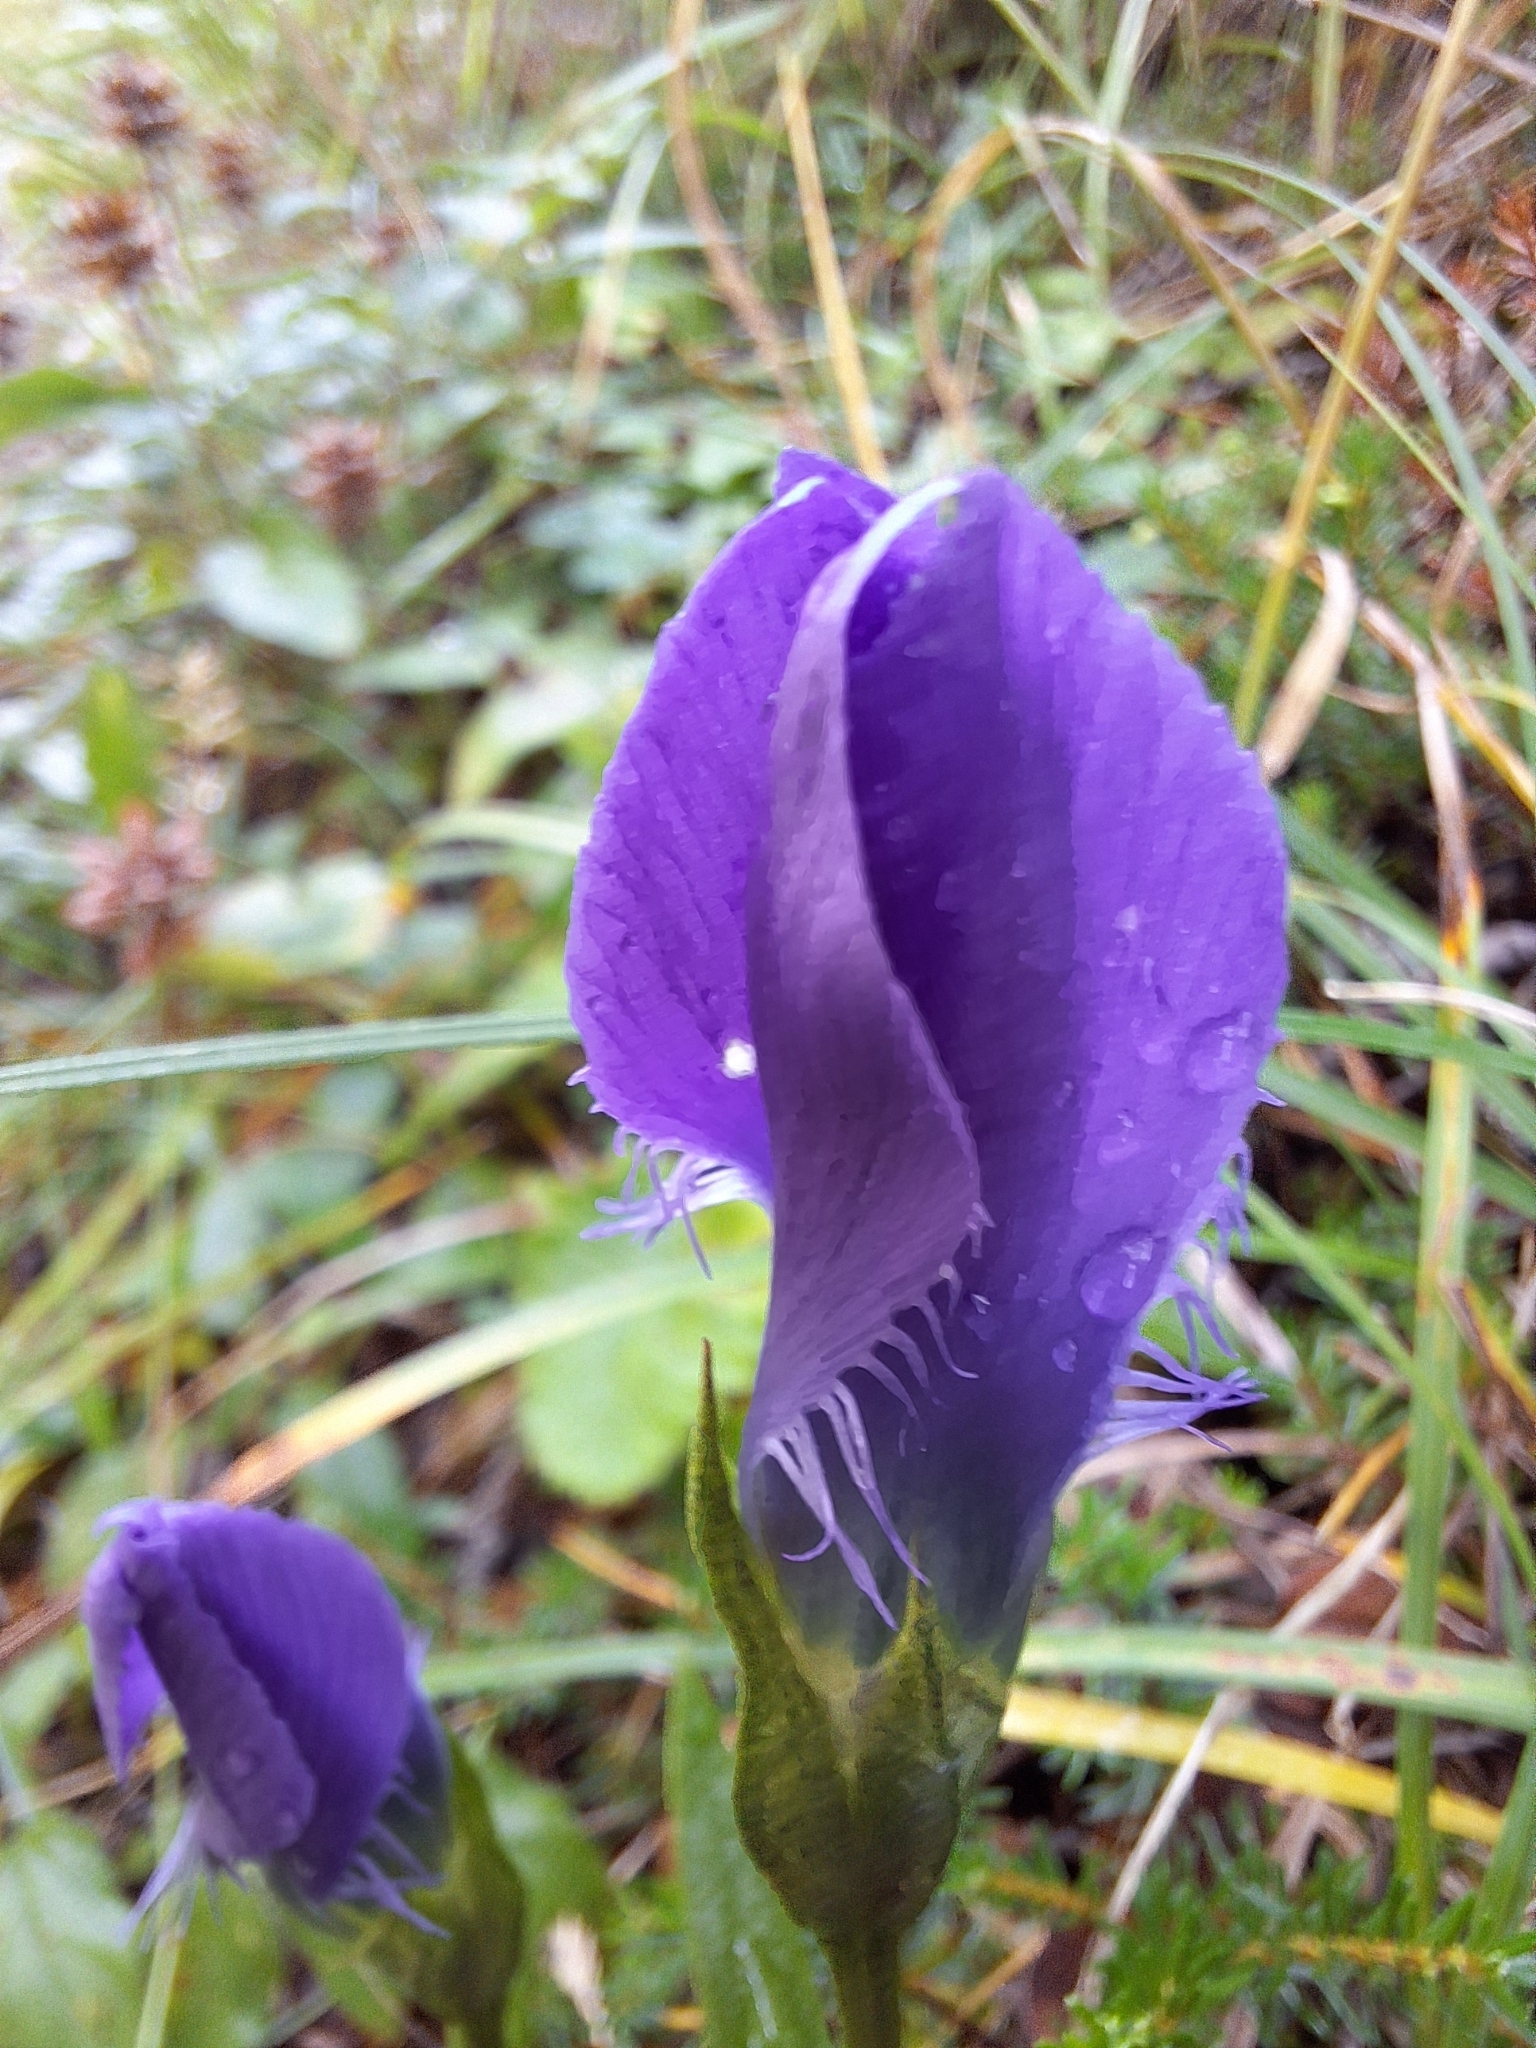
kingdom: Plantae
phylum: Tracheophyta
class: Magnoliopsida
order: Gentianales
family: Gentianaceae
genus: Gentianopsis
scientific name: Gentianopsis ciliata
